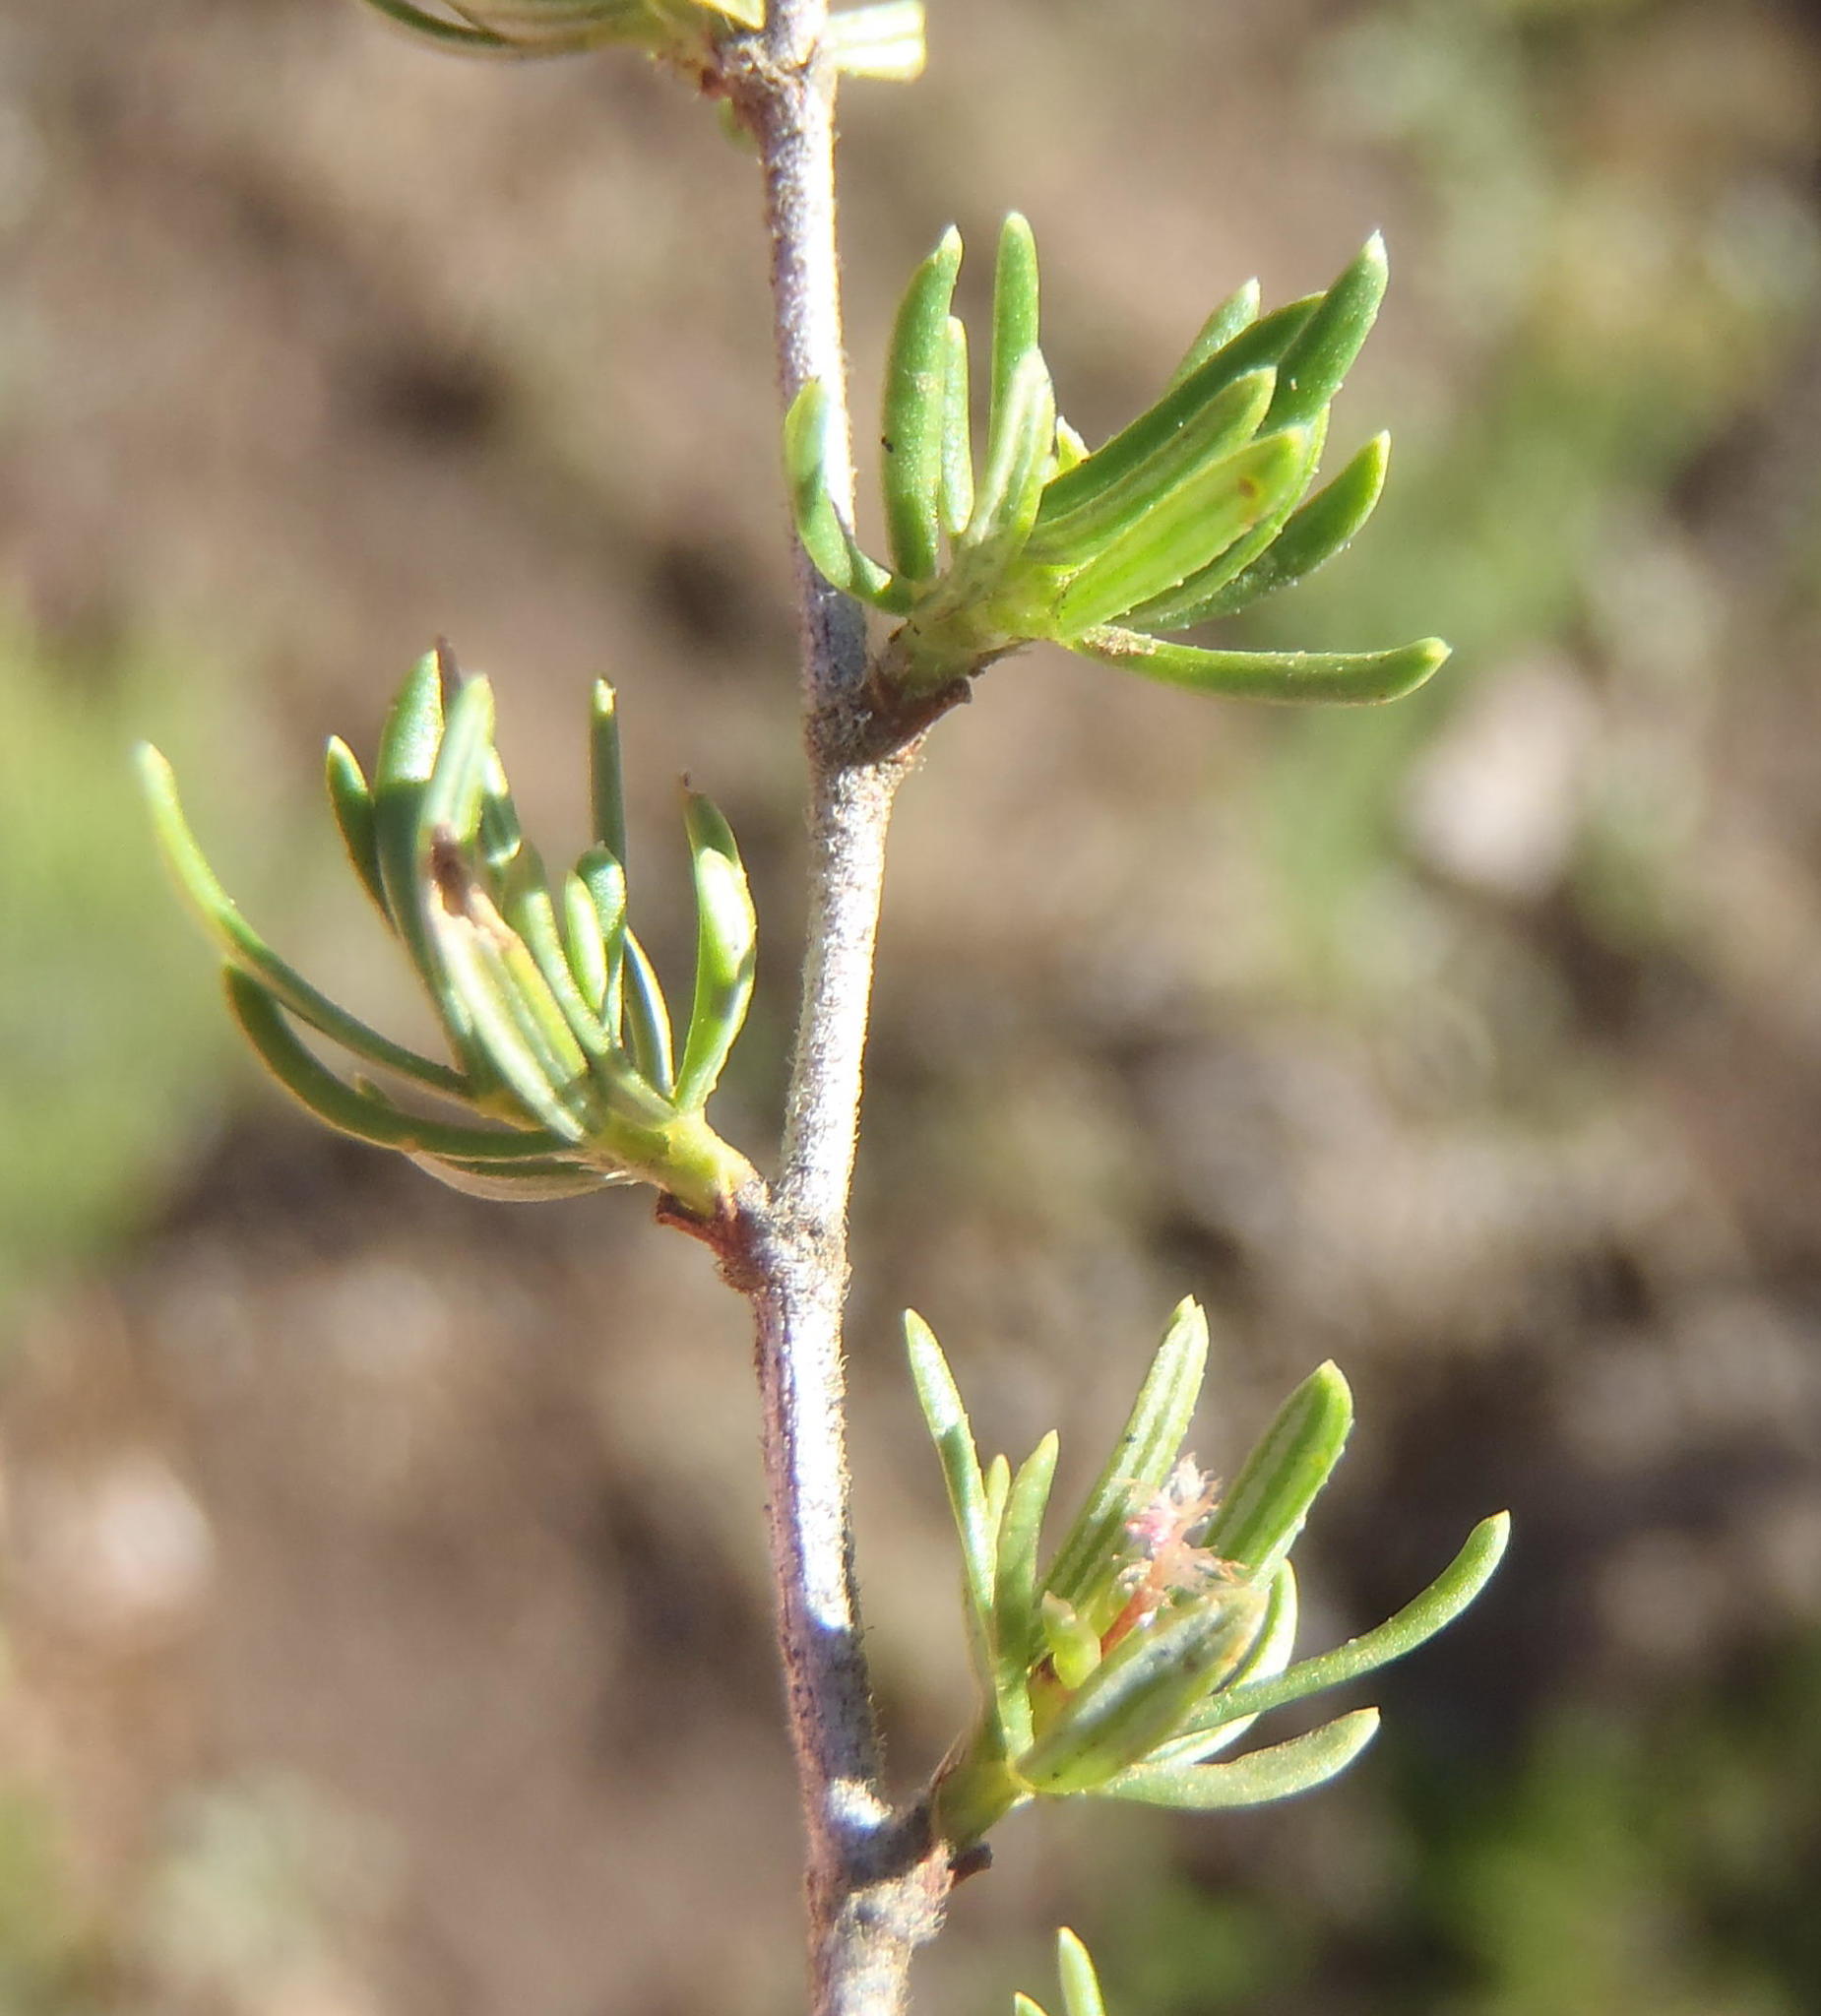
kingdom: Plantae
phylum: Tracheophyta
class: Magnoliopsida
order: Rosales
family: Rosaceae
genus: Cliffortia
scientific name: Cliffortia ramosissima
